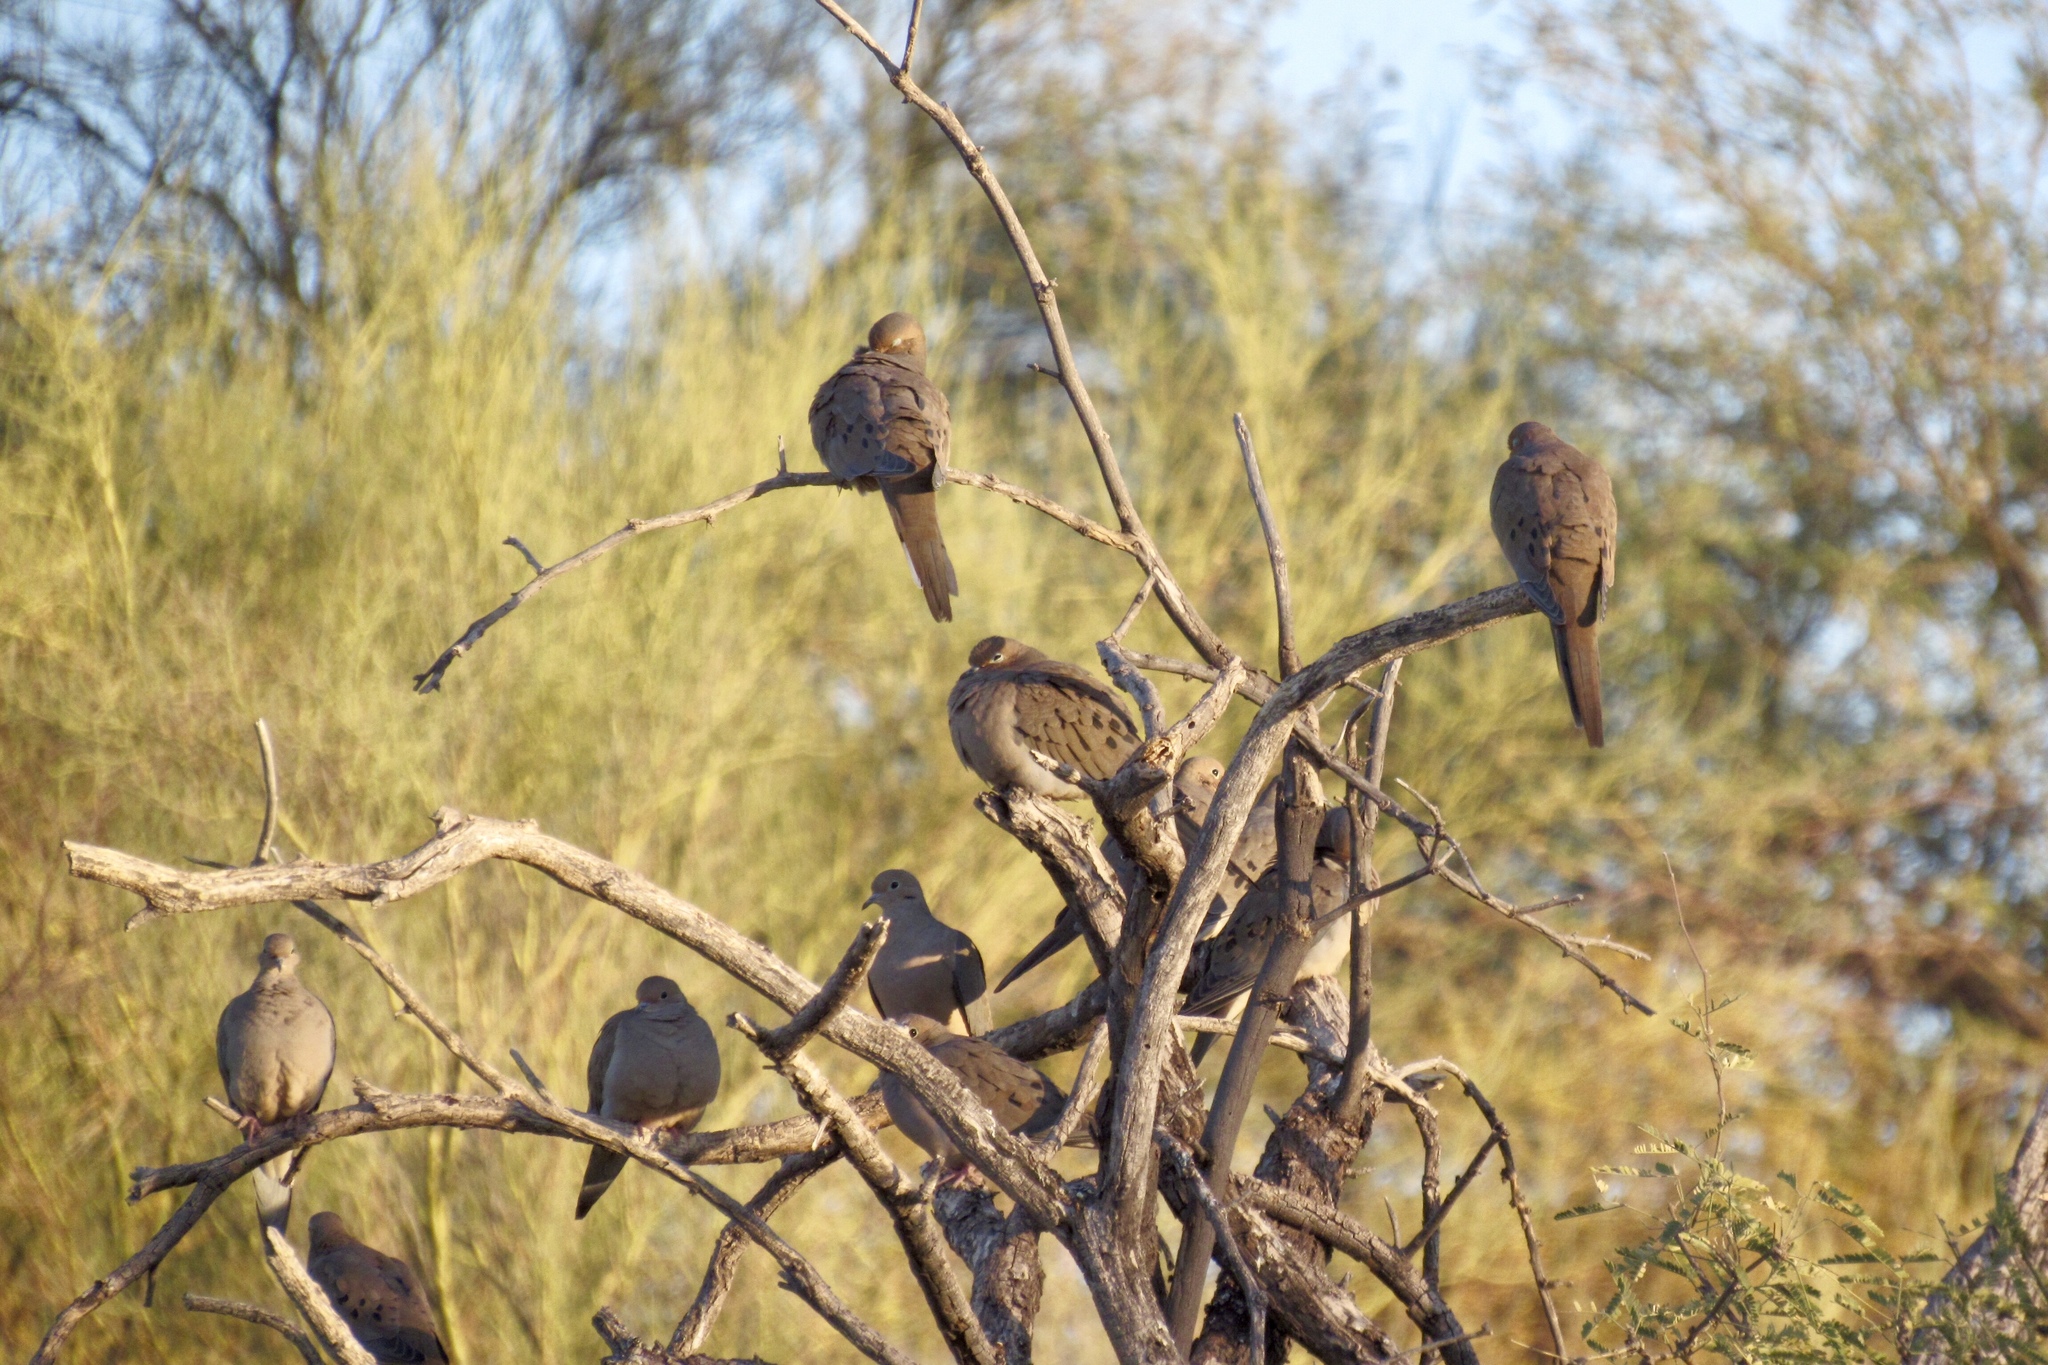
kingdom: Animalia
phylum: Chordata
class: Aves
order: Columbiformes
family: Columbidae
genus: Zenaida
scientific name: Zenaida macroura
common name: Mourning dove
